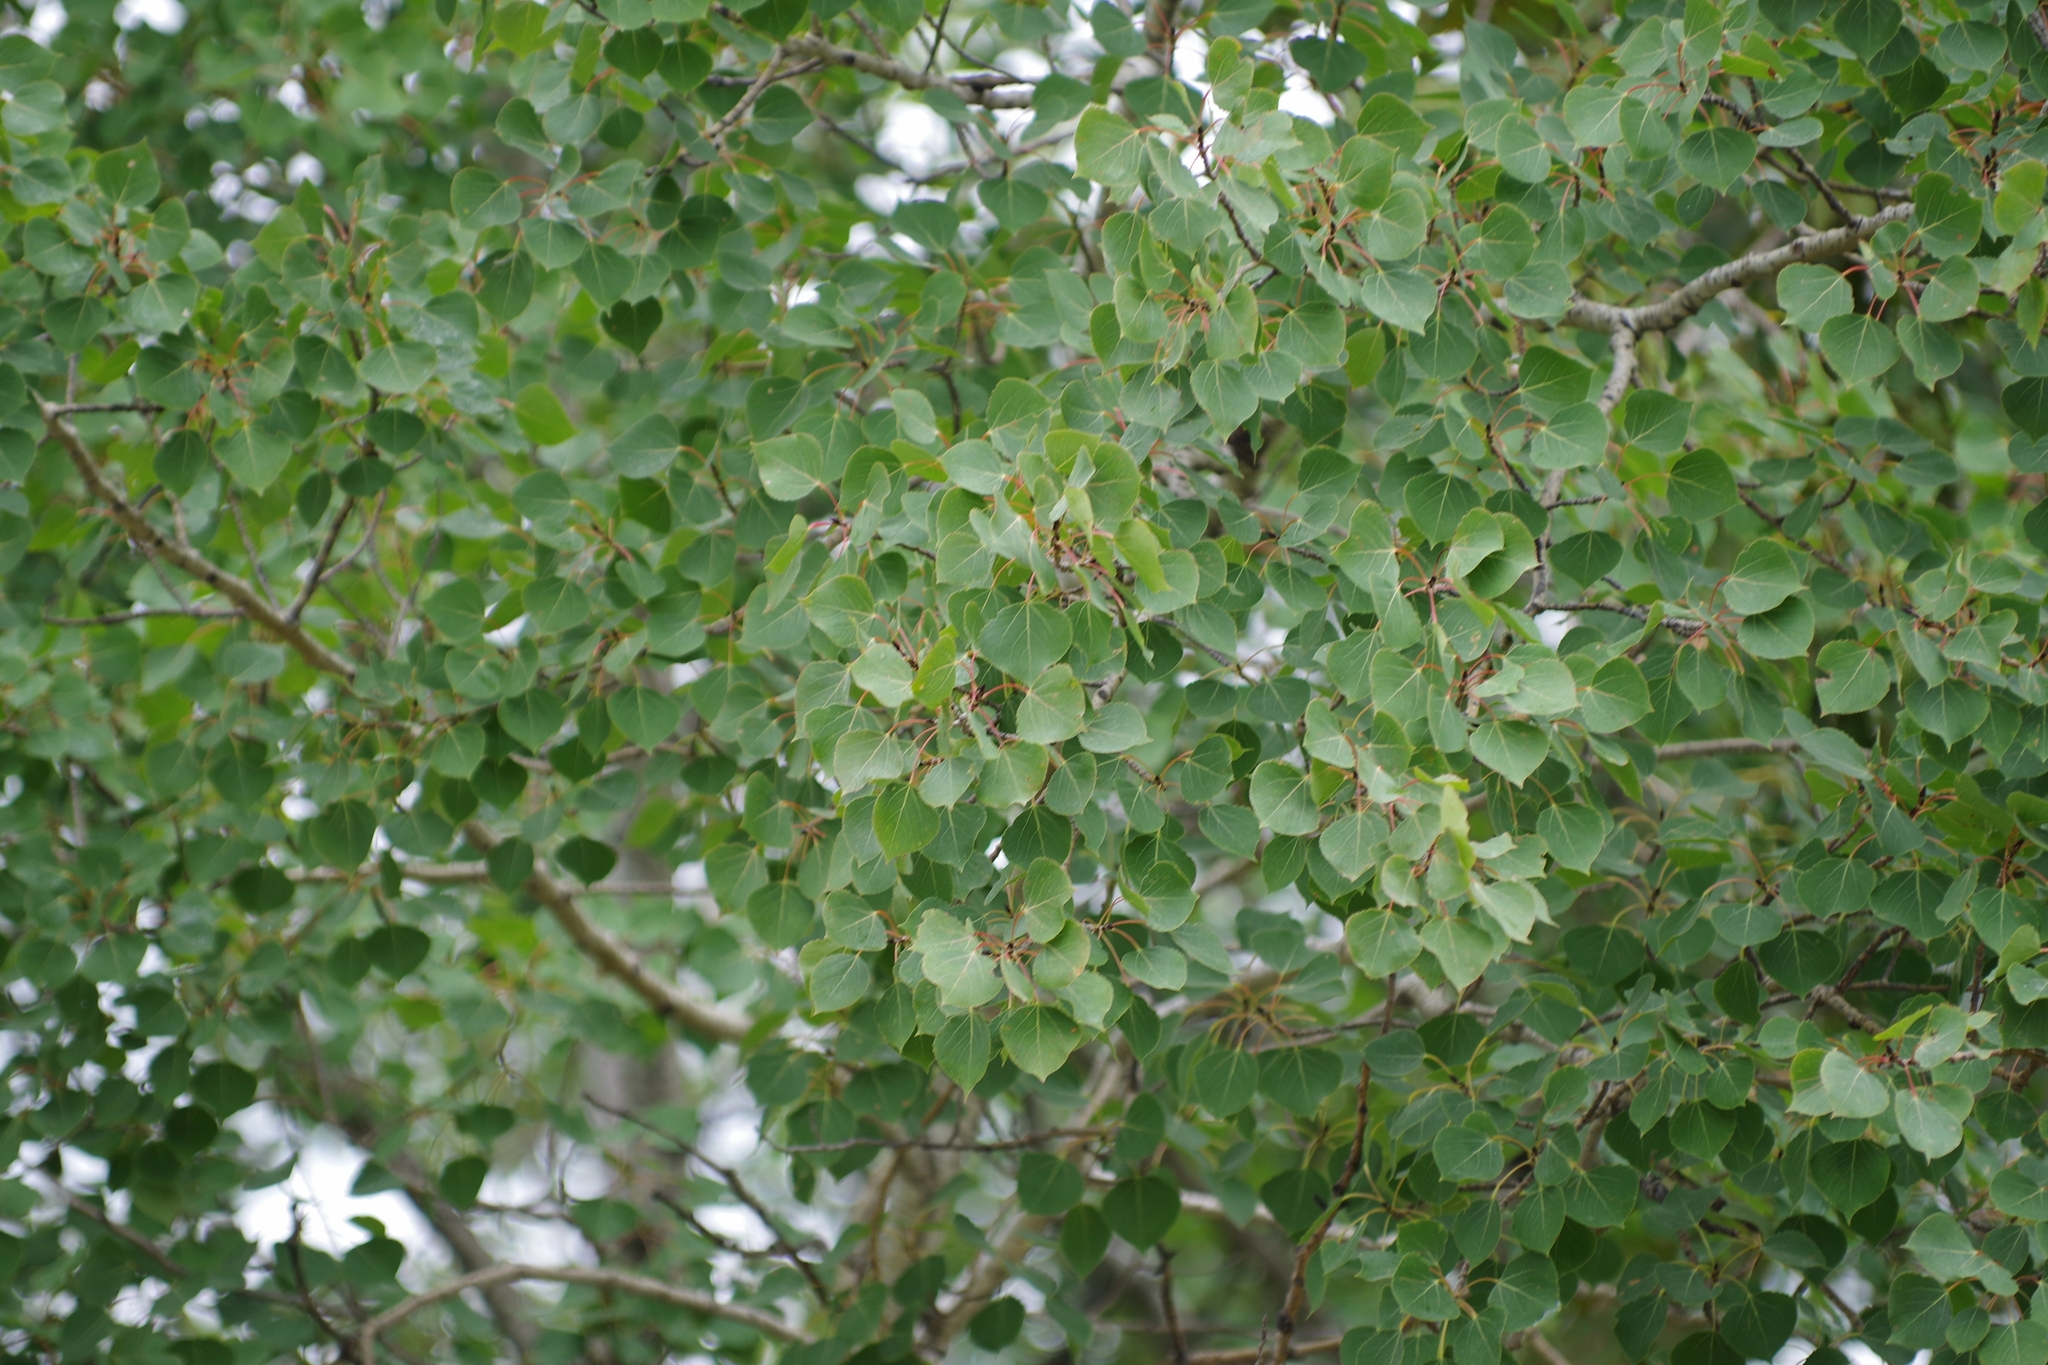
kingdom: Plantae
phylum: Tracheophyta
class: Magnoliopsida
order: Malpighiales
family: Salicaceae
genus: Populus
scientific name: Populus tremuloides
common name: Quaking aspen
